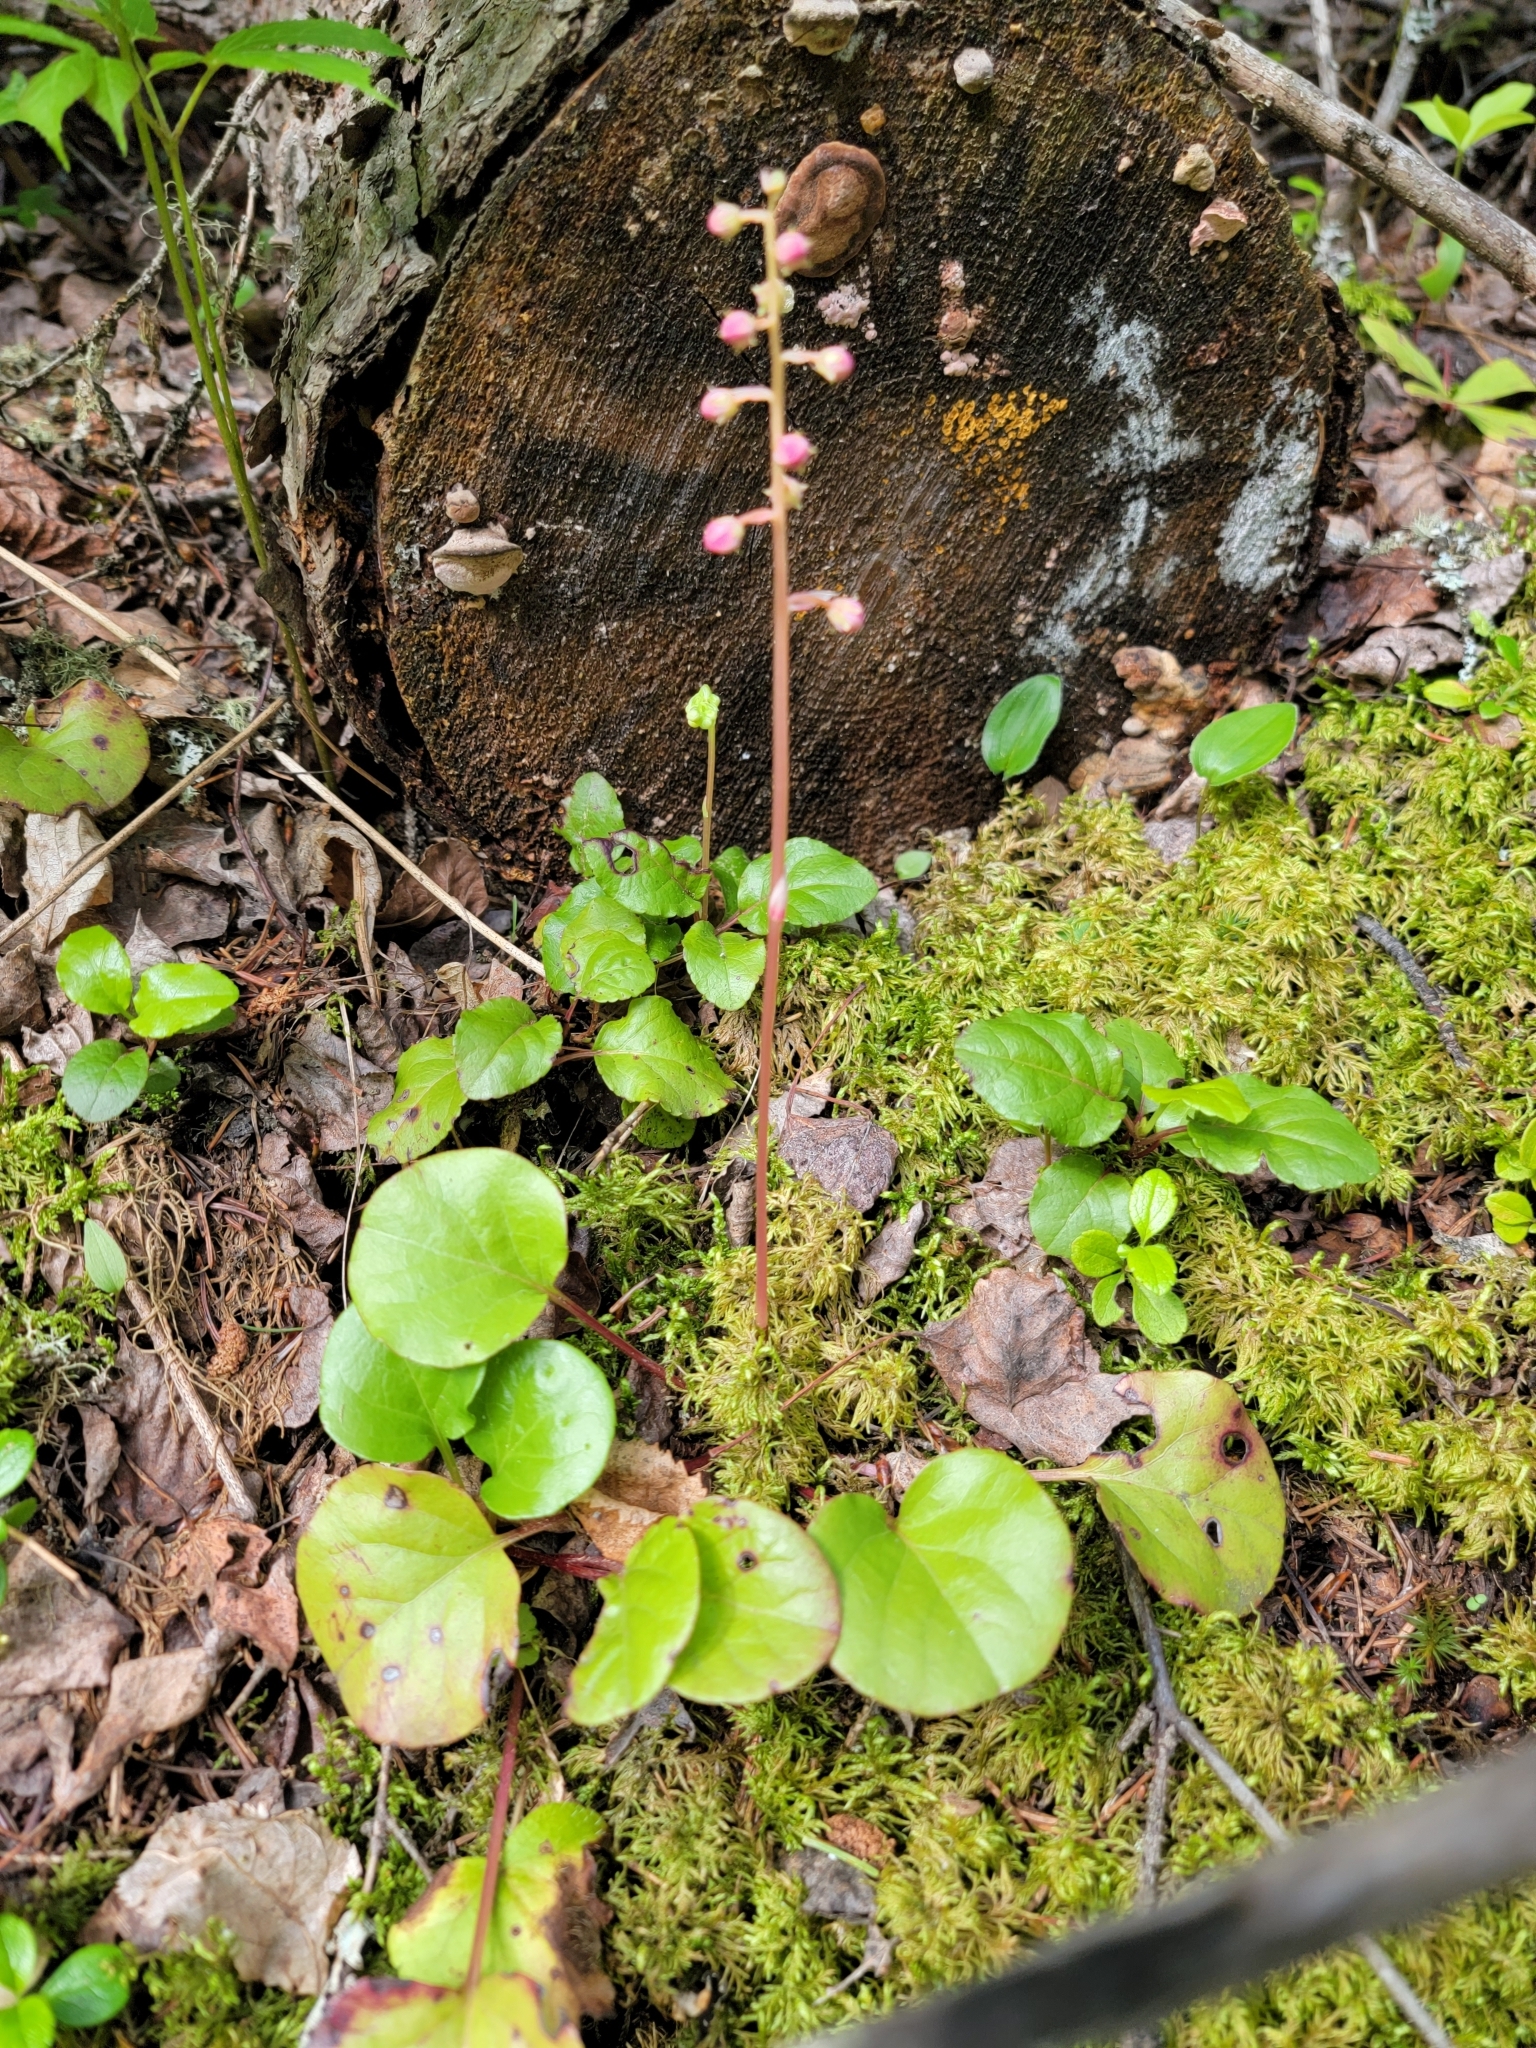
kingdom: Plantae
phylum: Tracheophyta
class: Magnoliopsida
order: Ericales
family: Ericaceae
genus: Pyrola
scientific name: Pyrola asarifolia
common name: Bog wintergreen
